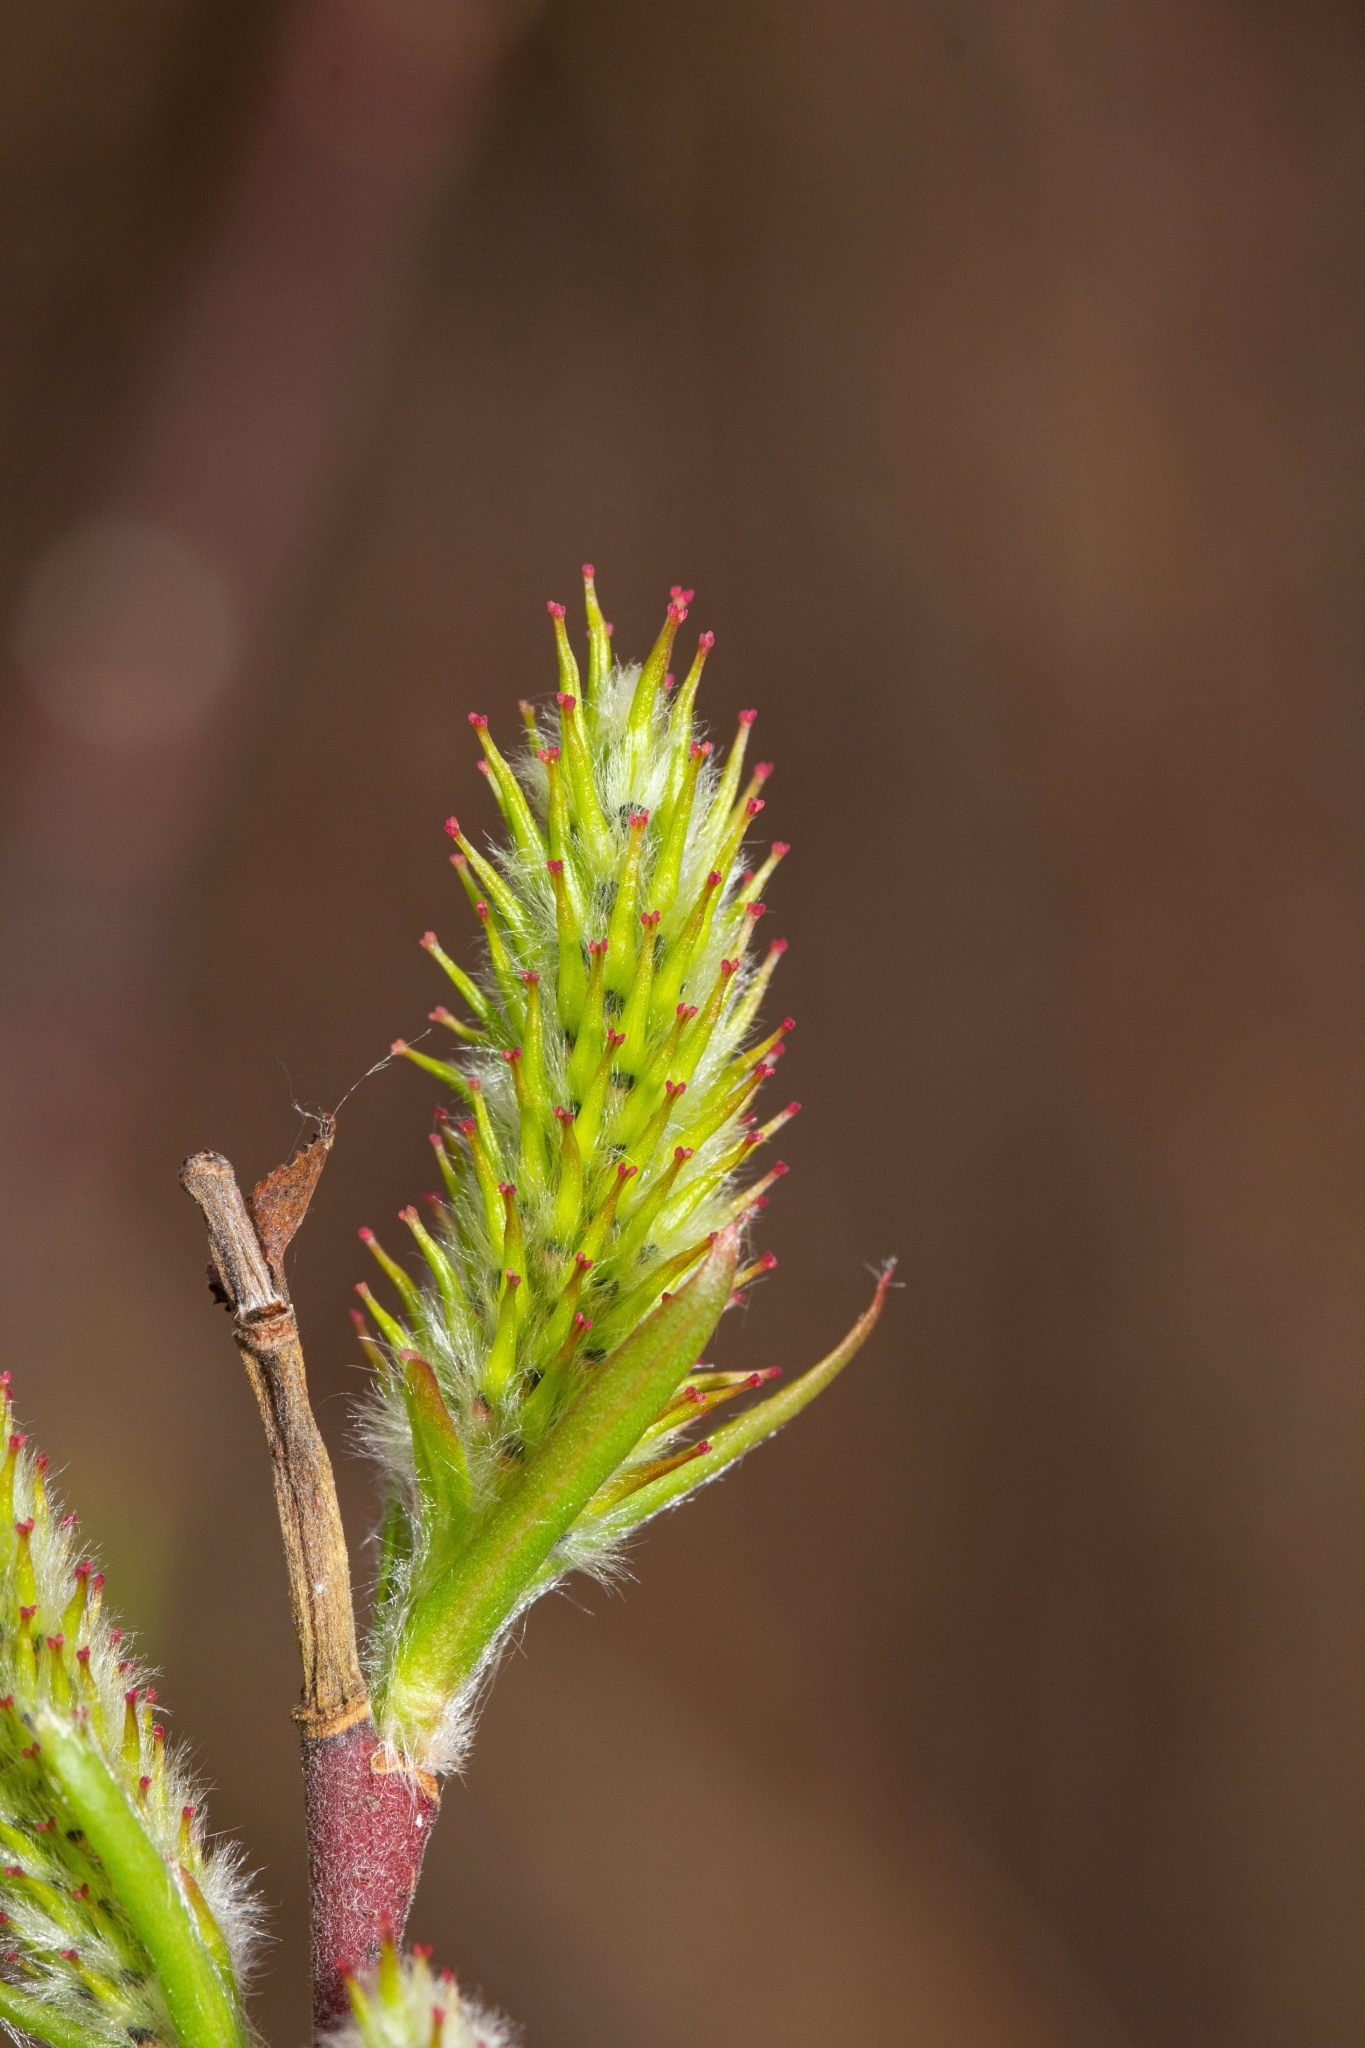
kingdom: Plantae
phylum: Tracheophyta
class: Magnoliopsida
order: Malpighiales
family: Salicaceae
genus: Salix
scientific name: Salix eriocephala
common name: Heart-leaved willow
